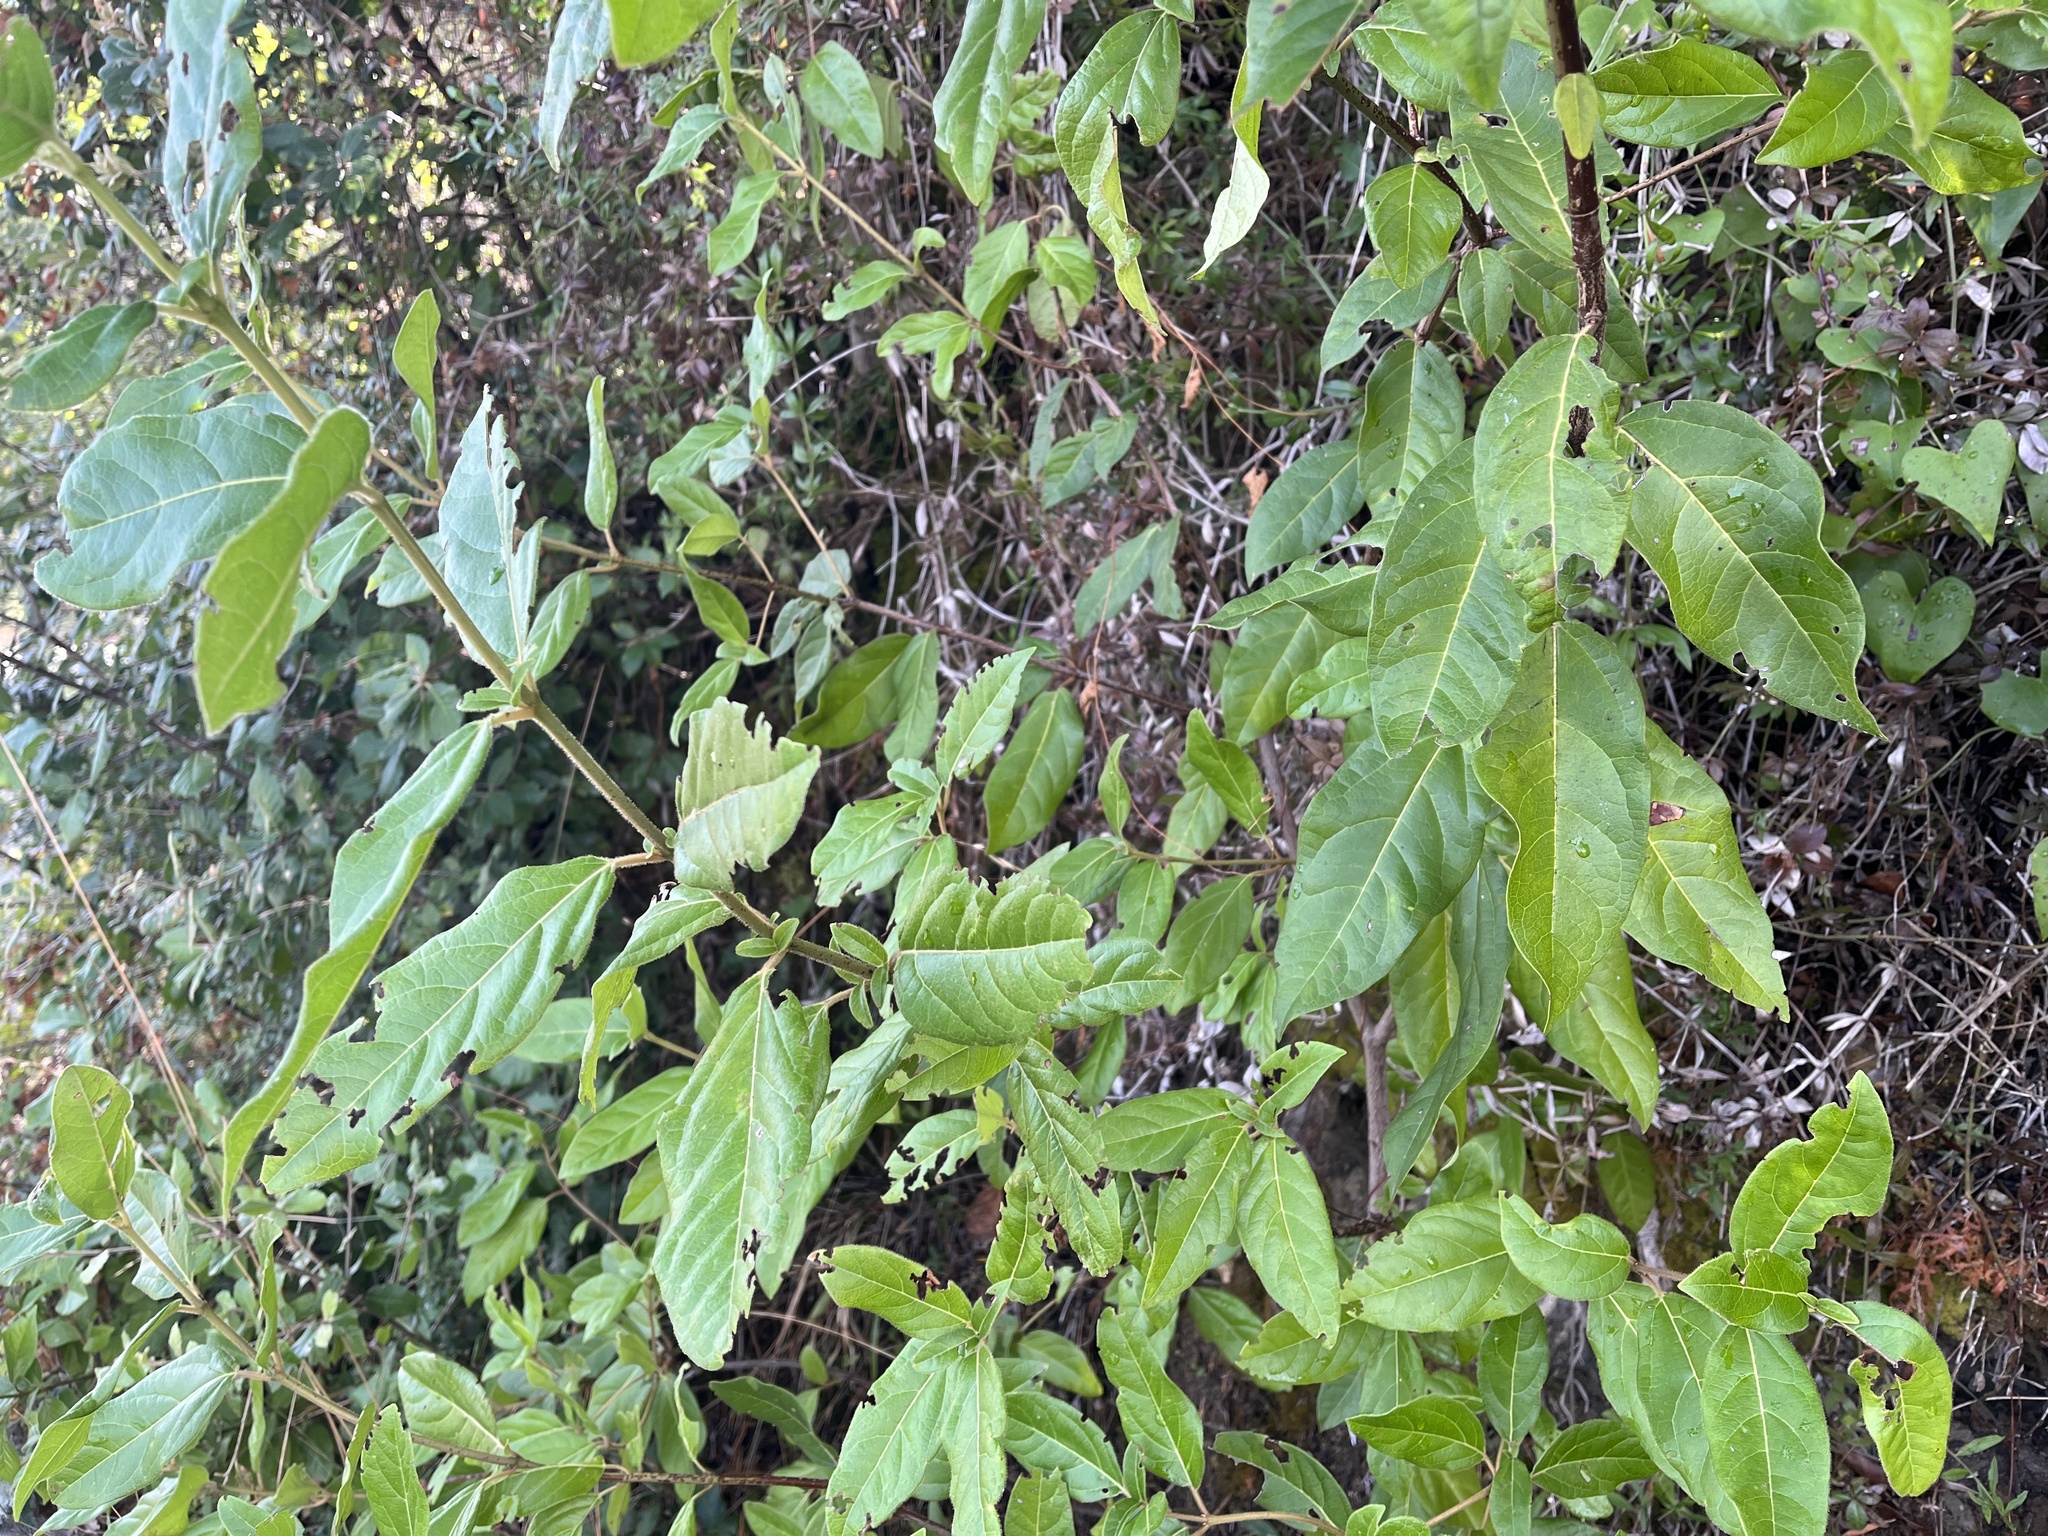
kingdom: Plantae
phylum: Tracheophyta
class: Magnoliopsida
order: Dipsacales
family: Viburnaceae
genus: Viburnum
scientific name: Viburnum tinus
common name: Laurustinus
